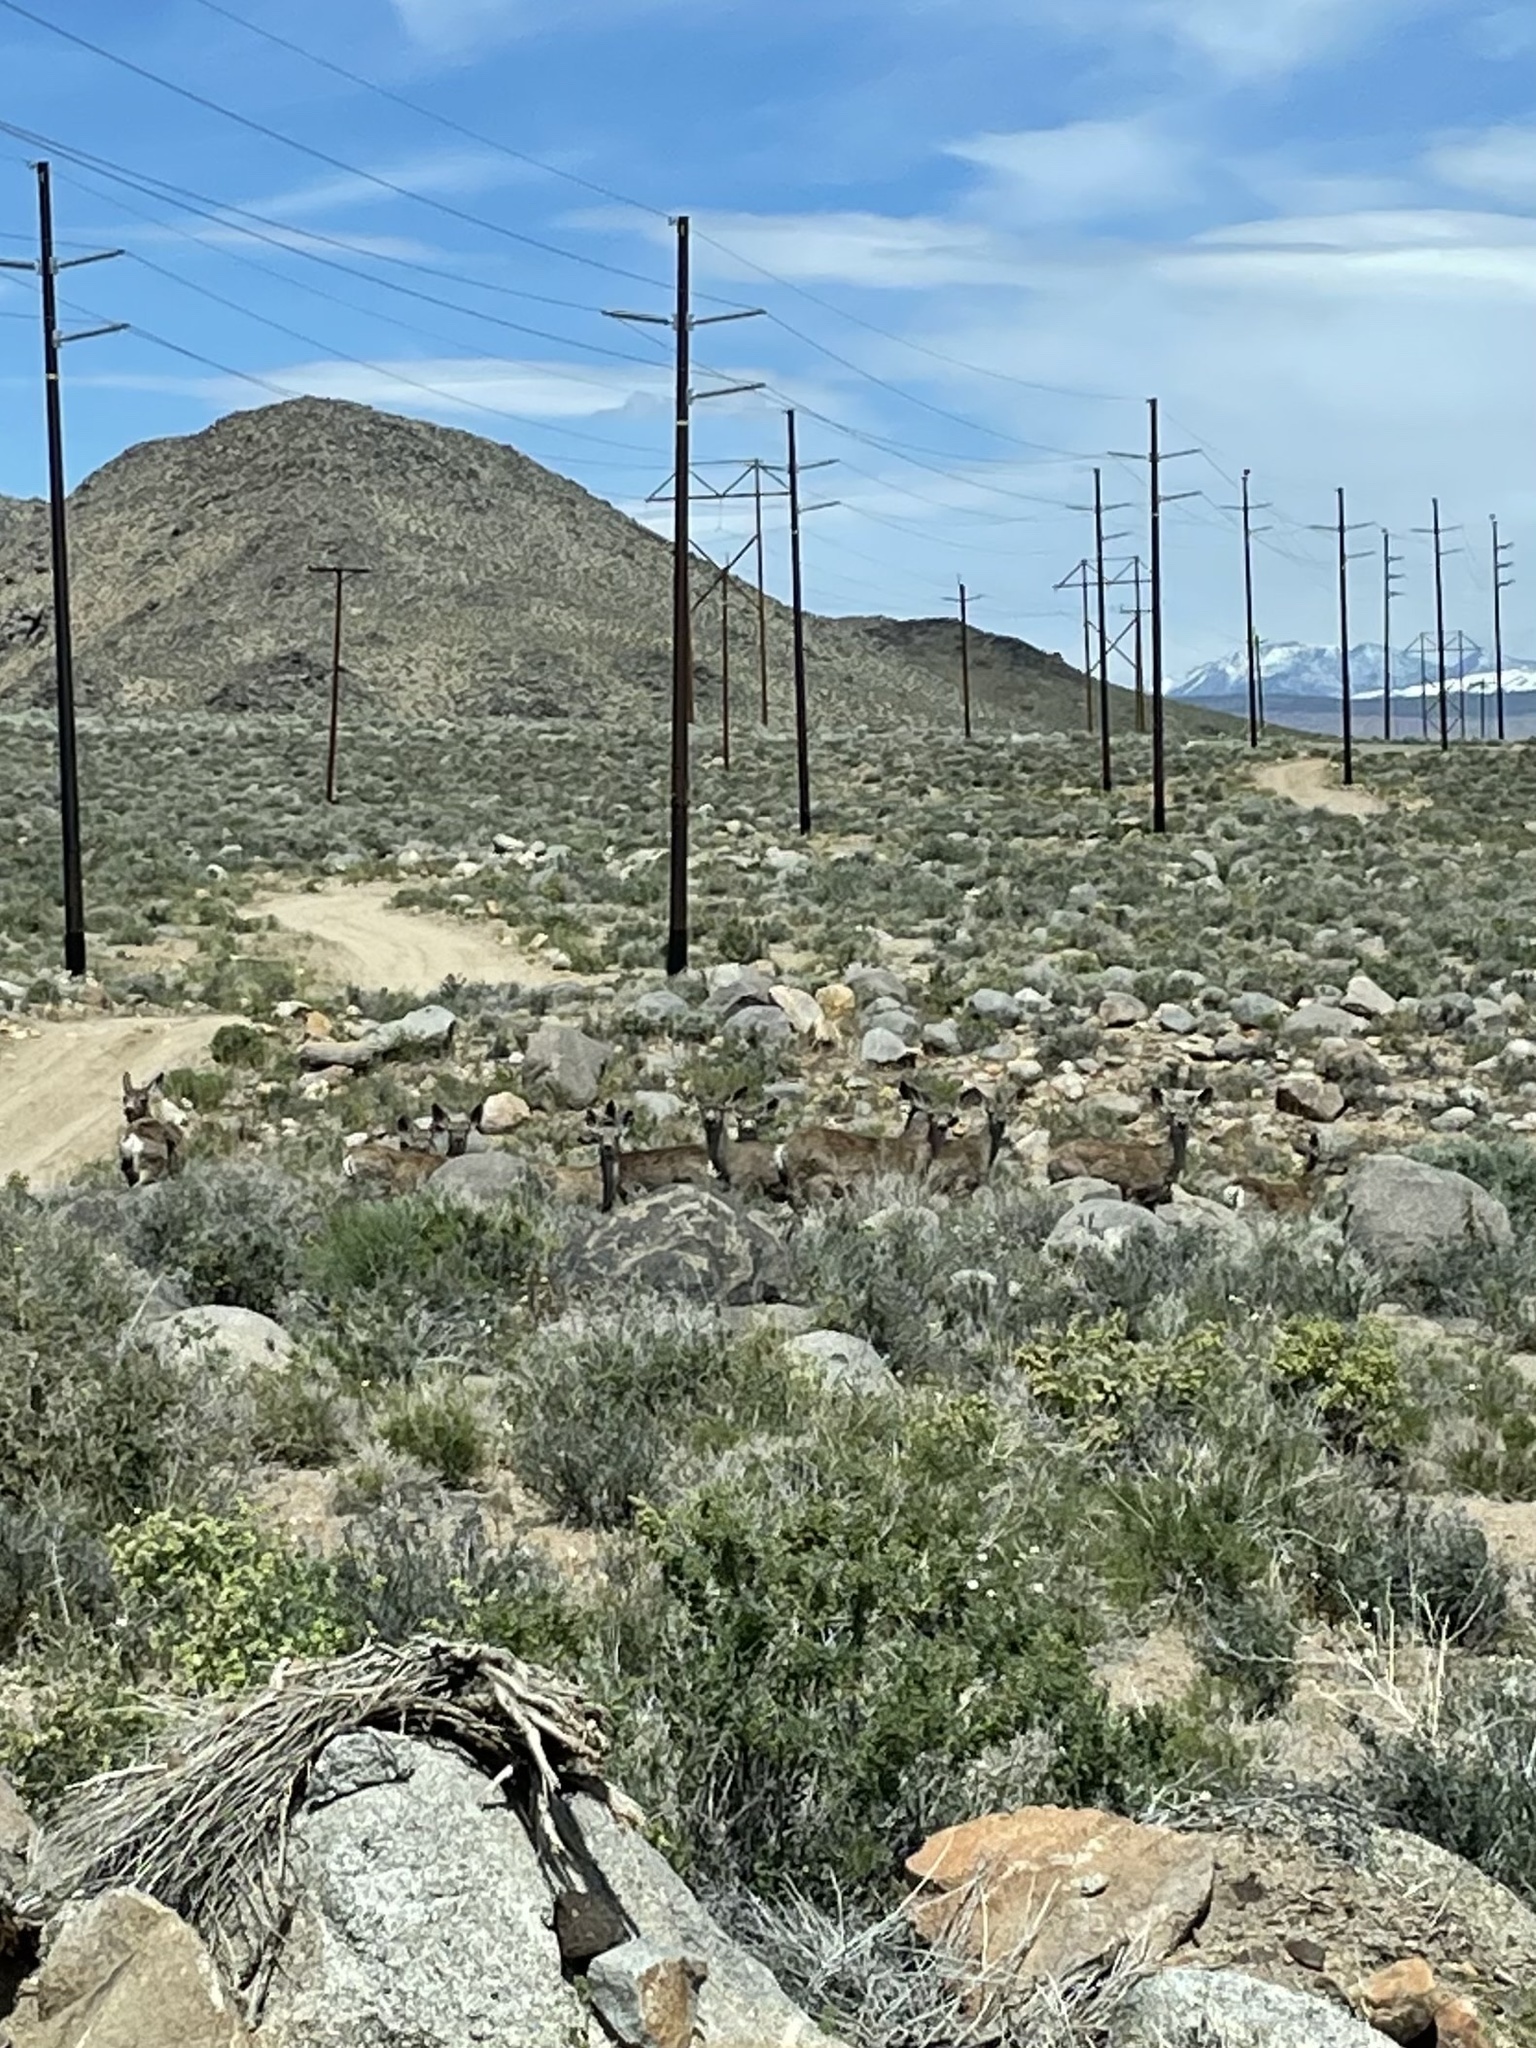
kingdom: Animalia
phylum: Chordata
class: Mammalia
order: Artiodactyla
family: Cervidae
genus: Odocoileus
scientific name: Odocoileus hemionus
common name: Mule deer
